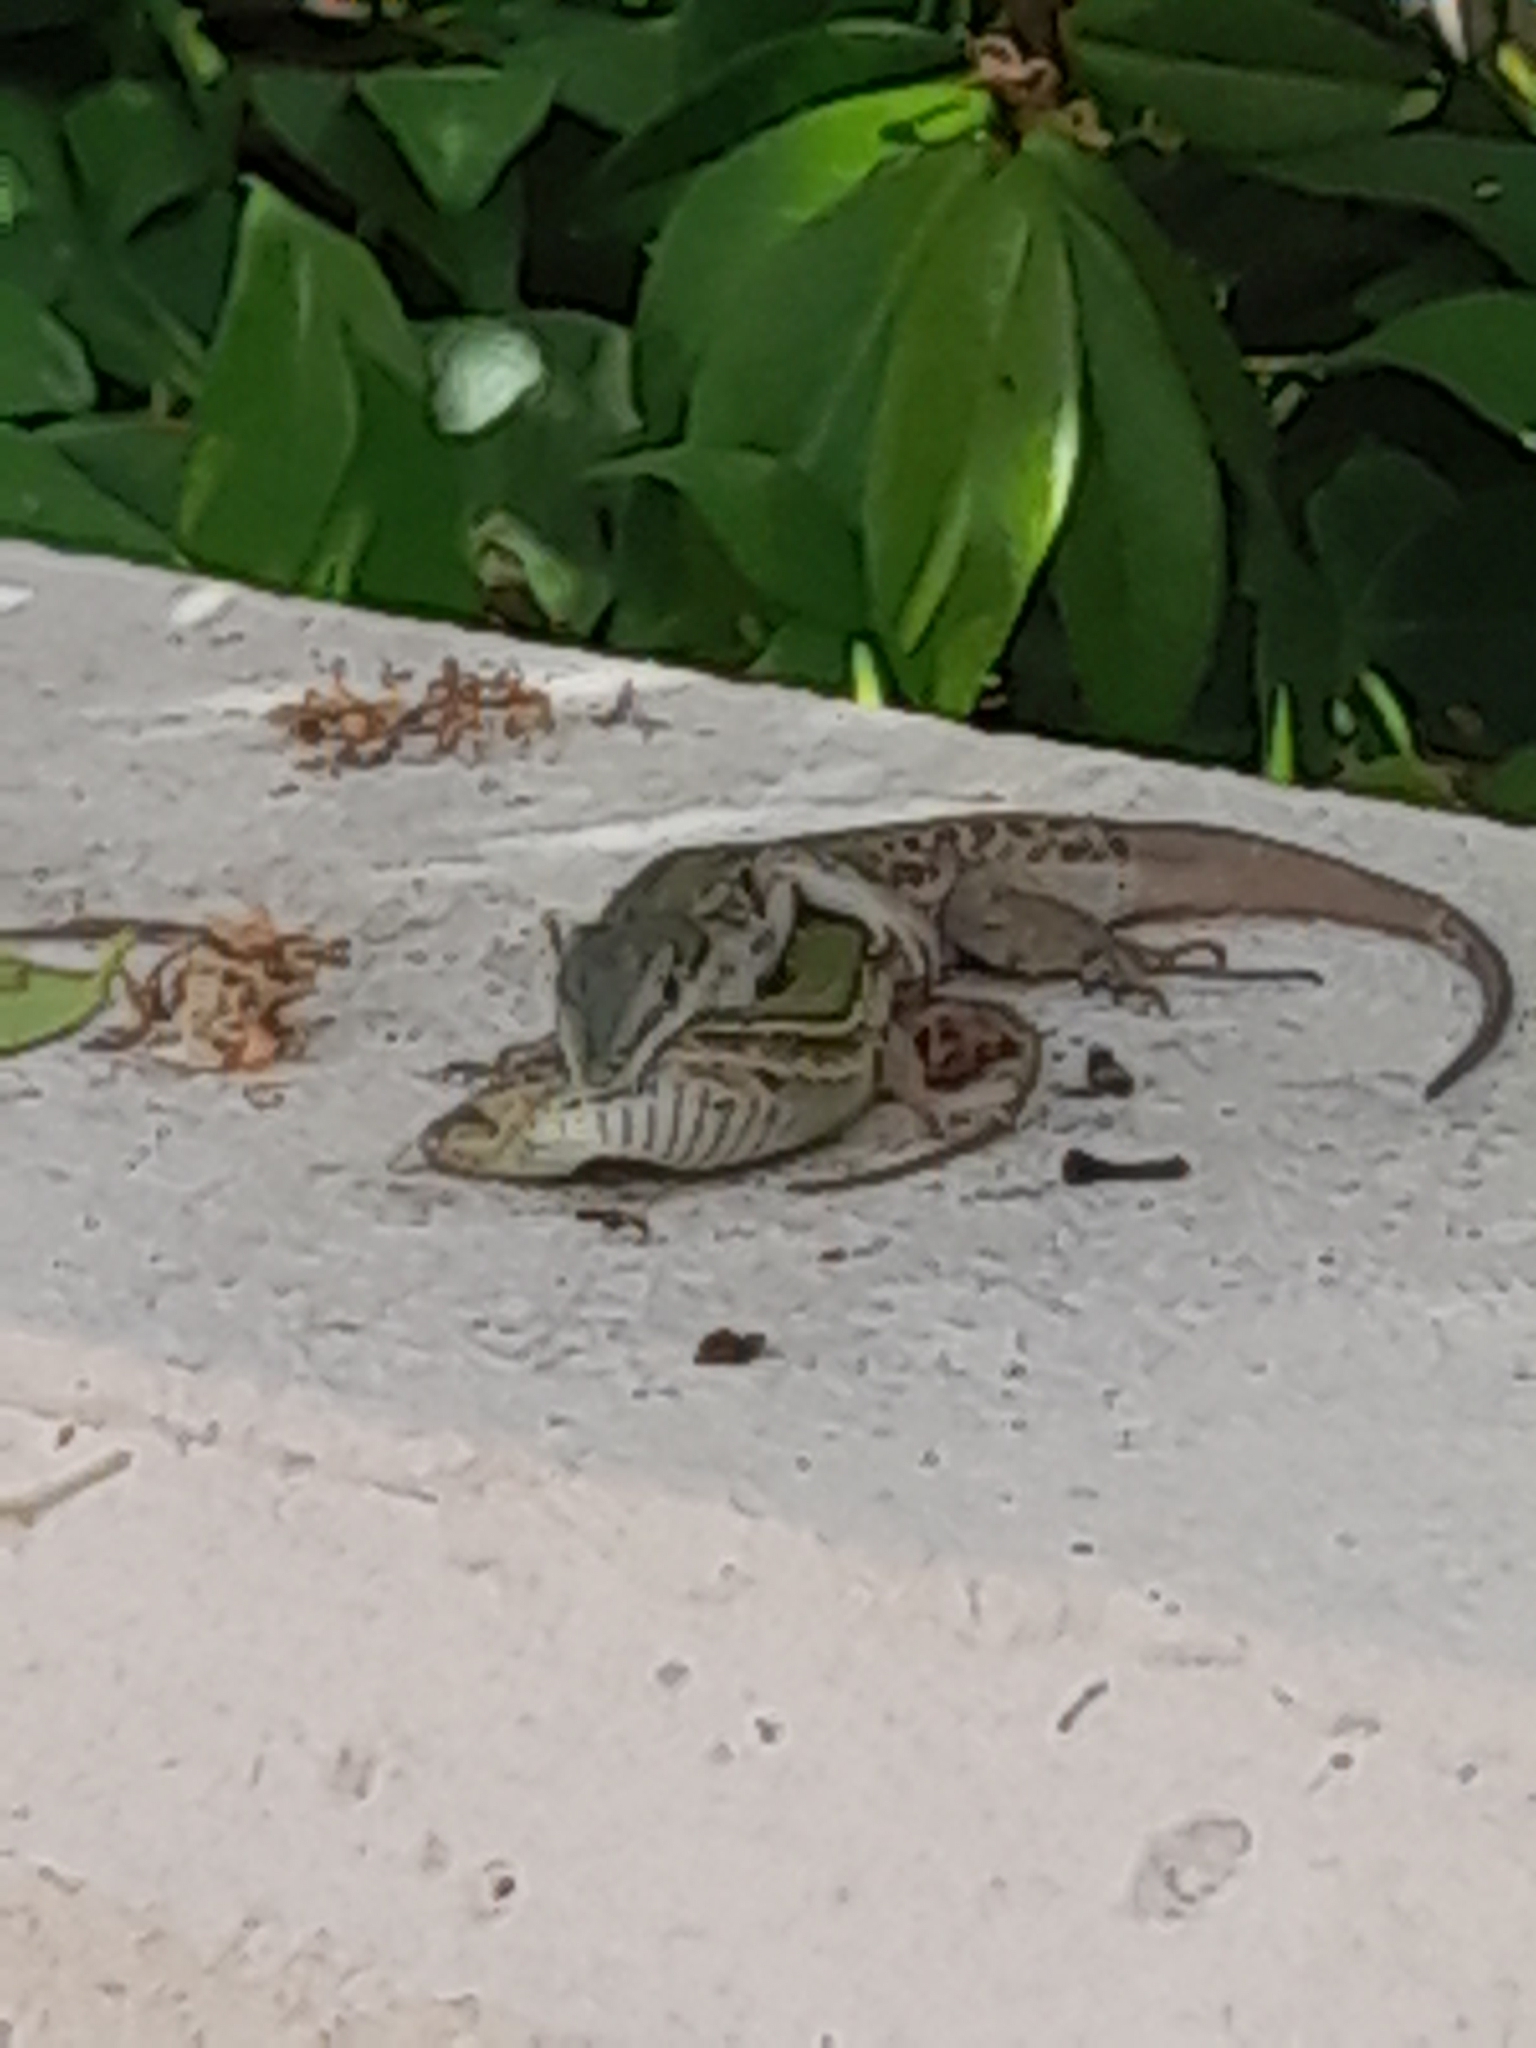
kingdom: Animalia
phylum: Chordata
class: Squamata
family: Lacertidae
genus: Podarcis
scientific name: Podarcis siculus
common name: Italian wall lizard
